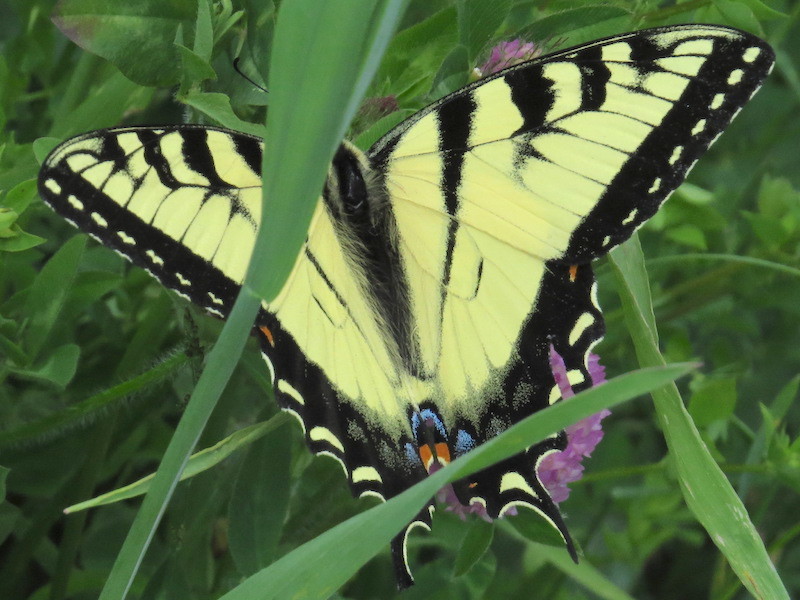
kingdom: Animalia
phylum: Arthropoda
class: Insecta
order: Lepidoptera
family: Papilionidae
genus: Papilio
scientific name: Papilio glaucus
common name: Tiger swallowtail
